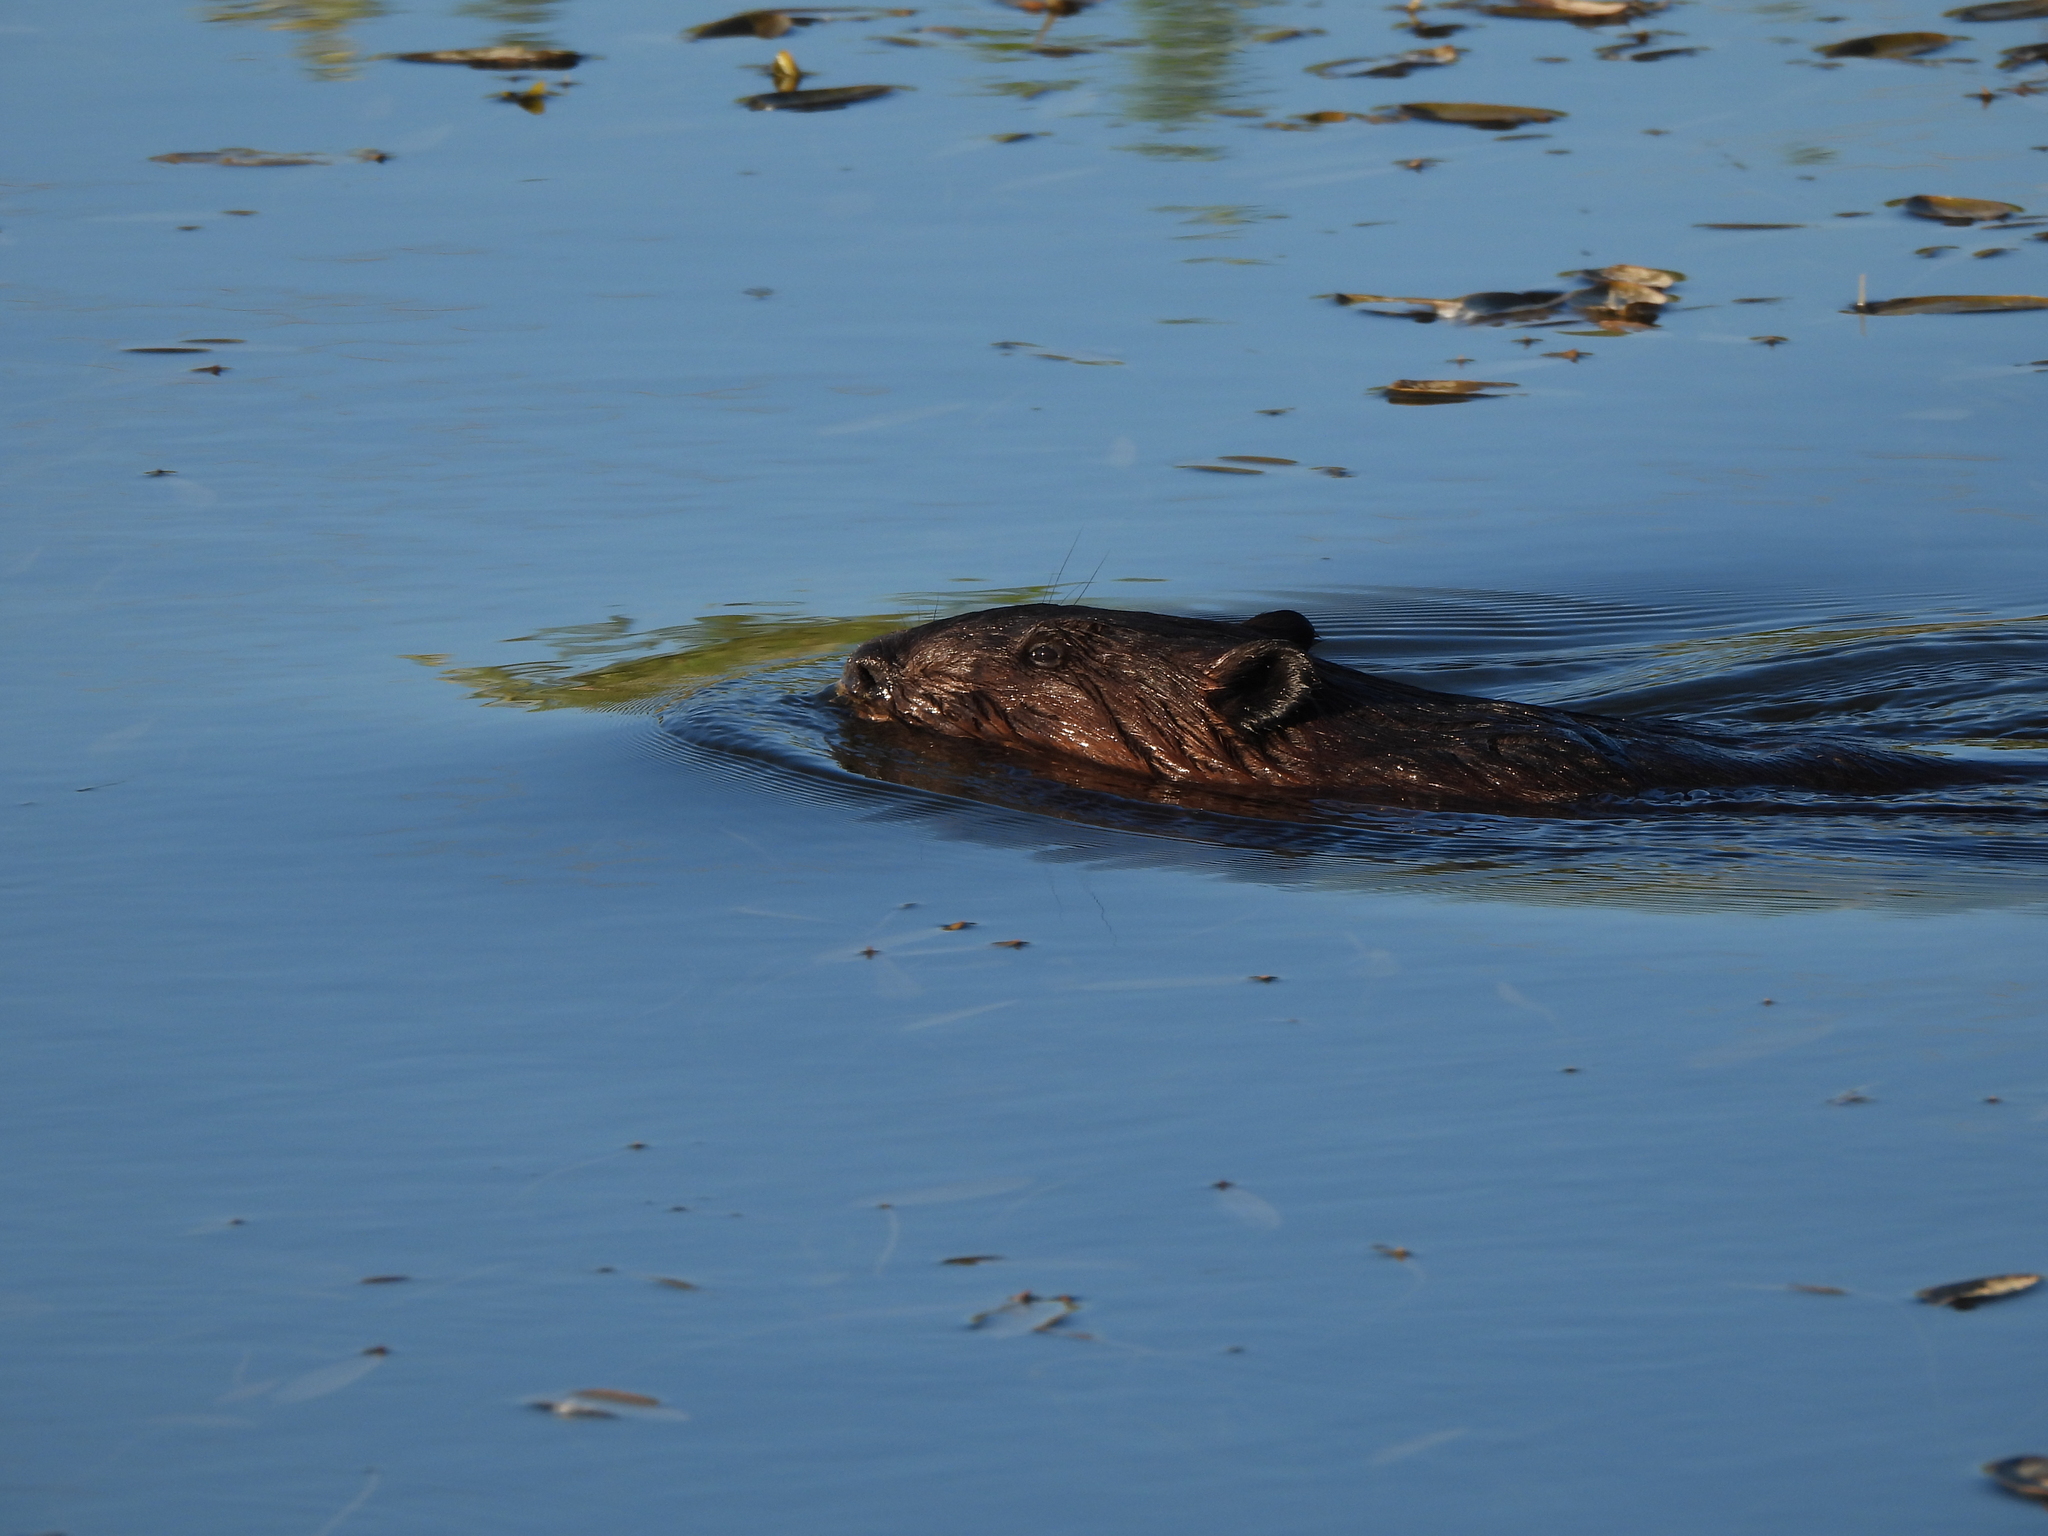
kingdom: Animalia
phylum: Chordata
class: Mammalia
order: Rodentia
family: Castoridae
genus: Castor
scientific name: Castor canadensis
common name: American beaver
